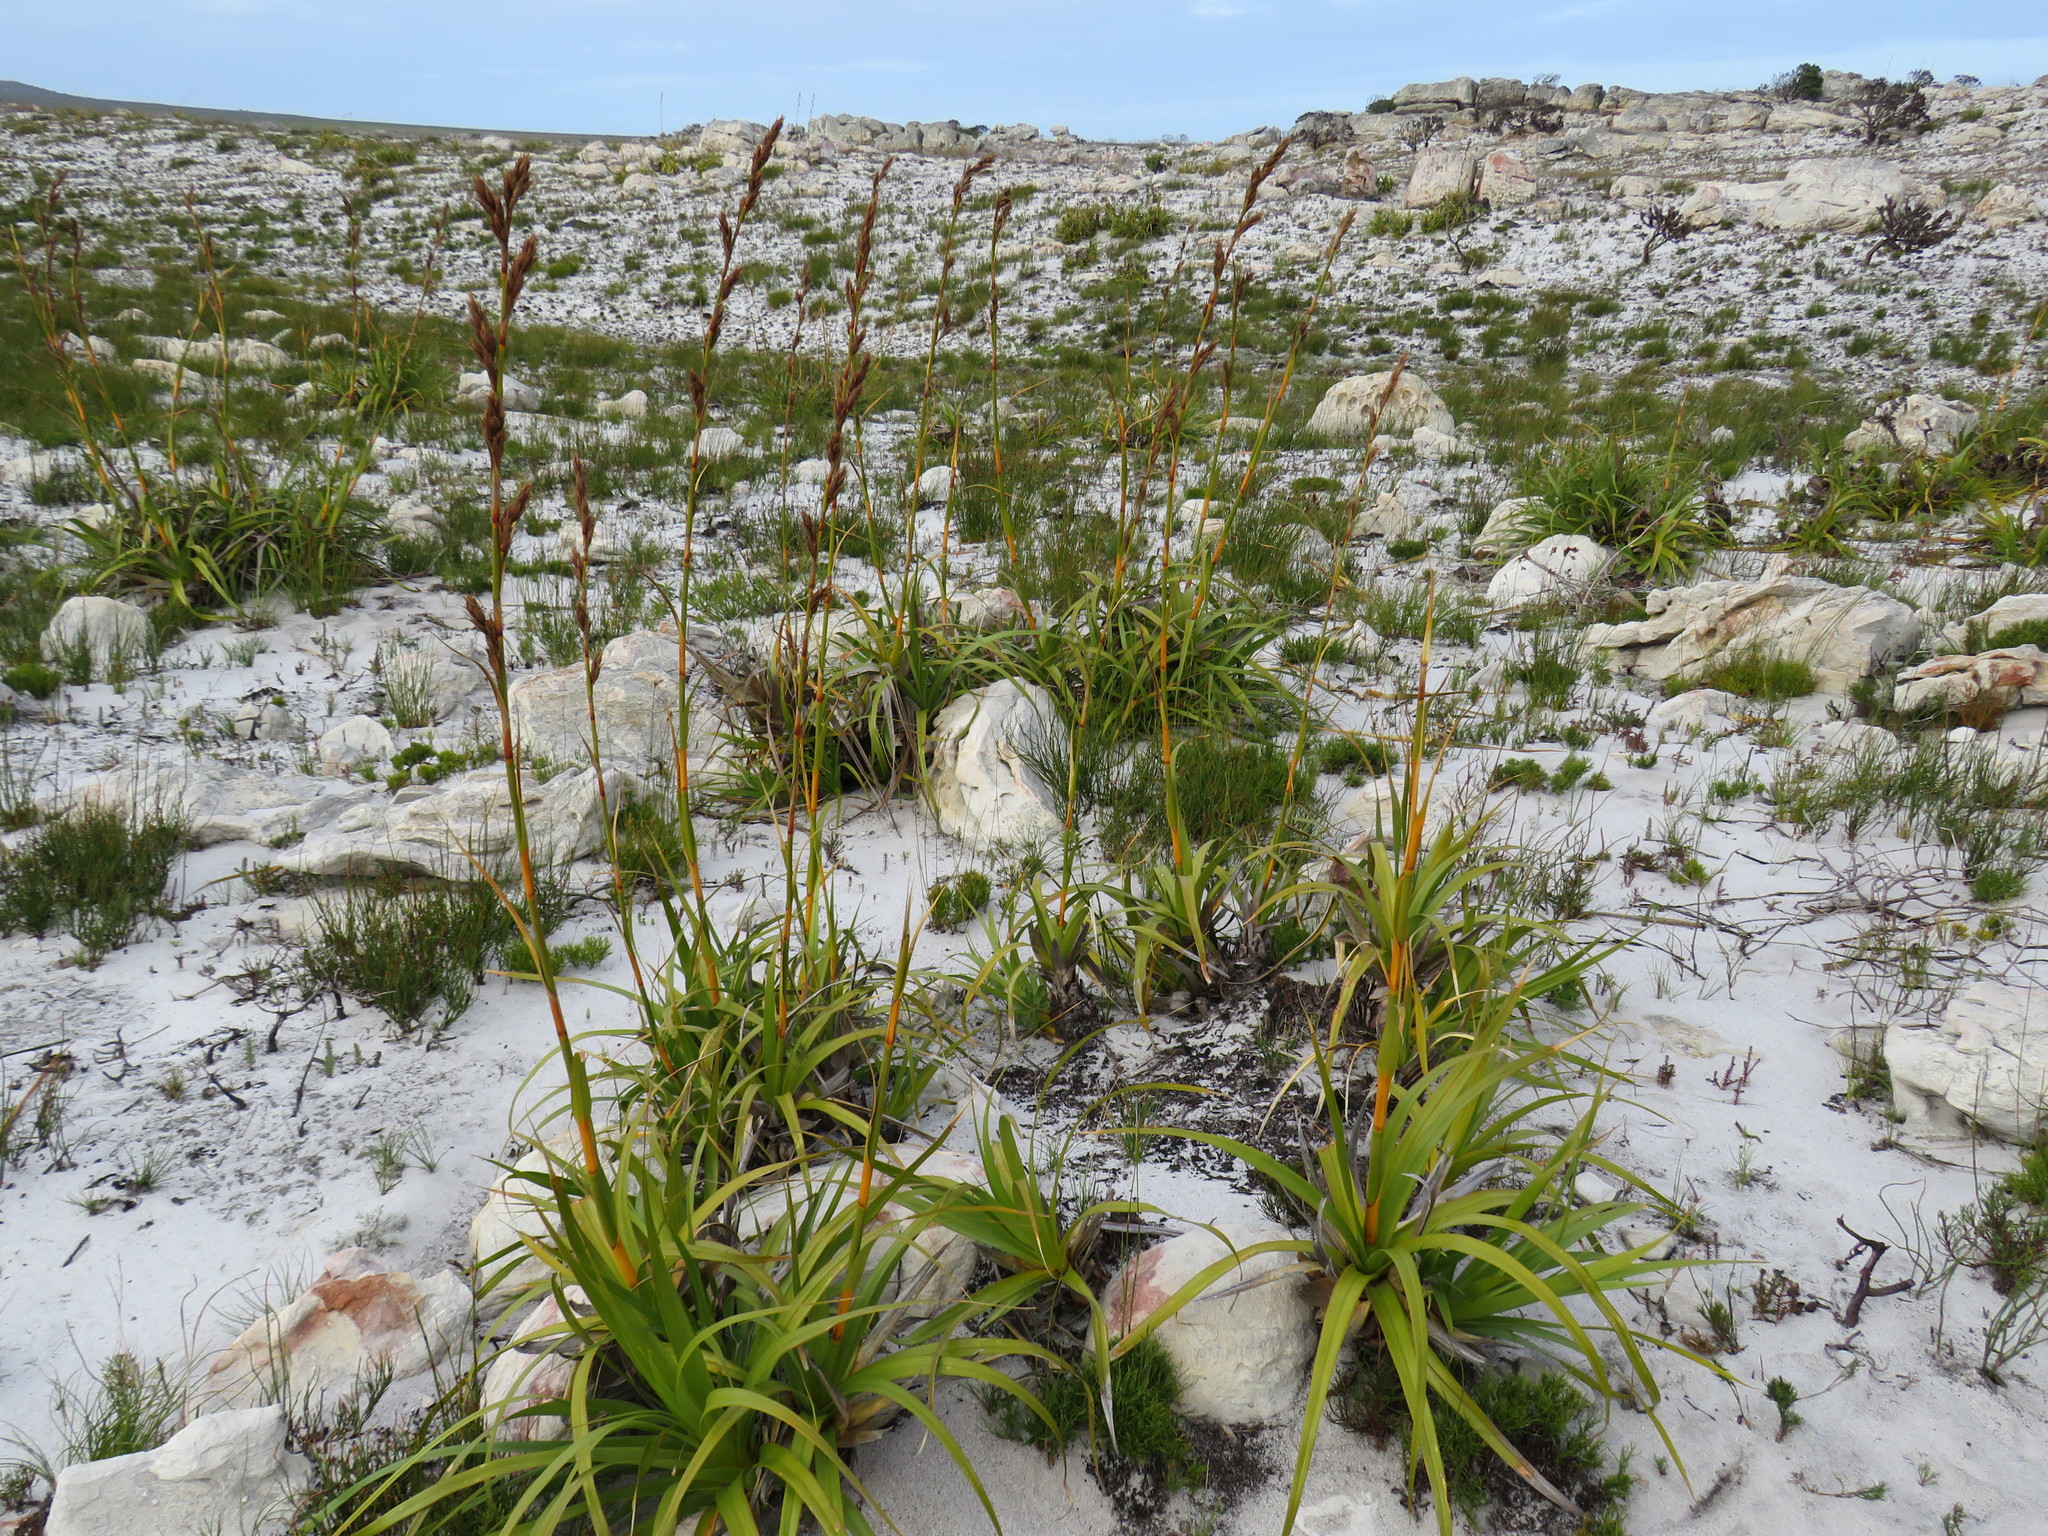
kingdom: Plantae
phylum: Tracheophyta
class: Liliopsida
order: Poales
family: Cyperaceae
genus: Tetraria
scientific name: Tetraria thermalis
